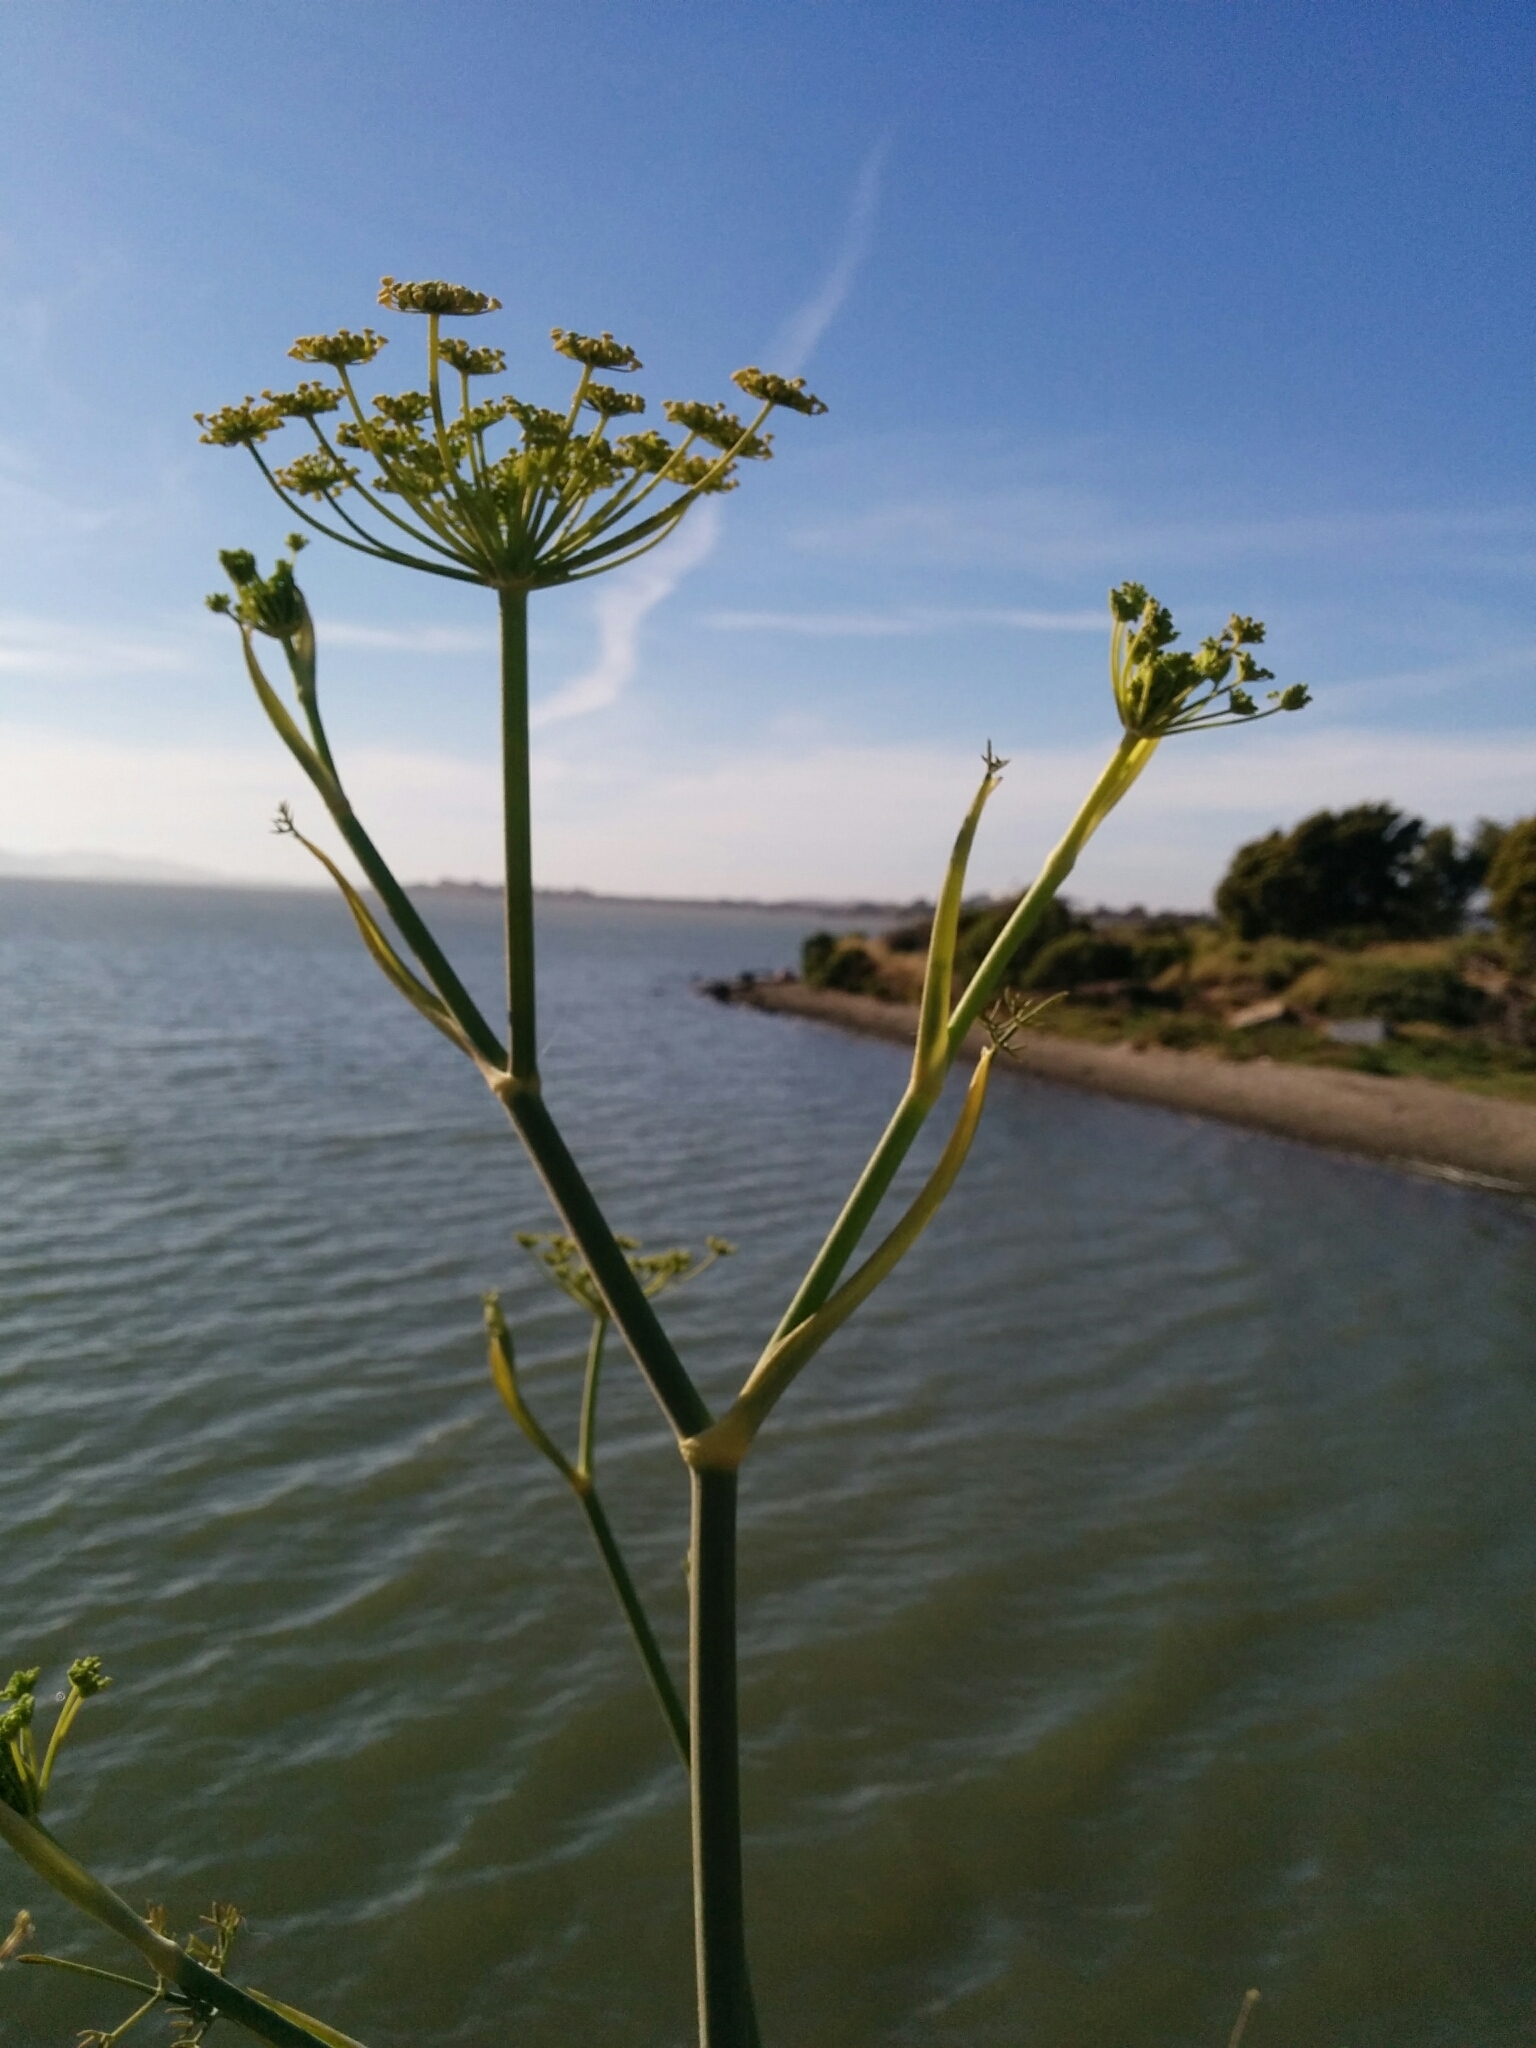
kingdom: Plantae
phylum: Tracheophyta
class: Magnoliopsida
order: Apiales
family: Apiaceae
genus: Foeniculum
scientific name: Foeniculum vulgare
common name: Fennel
